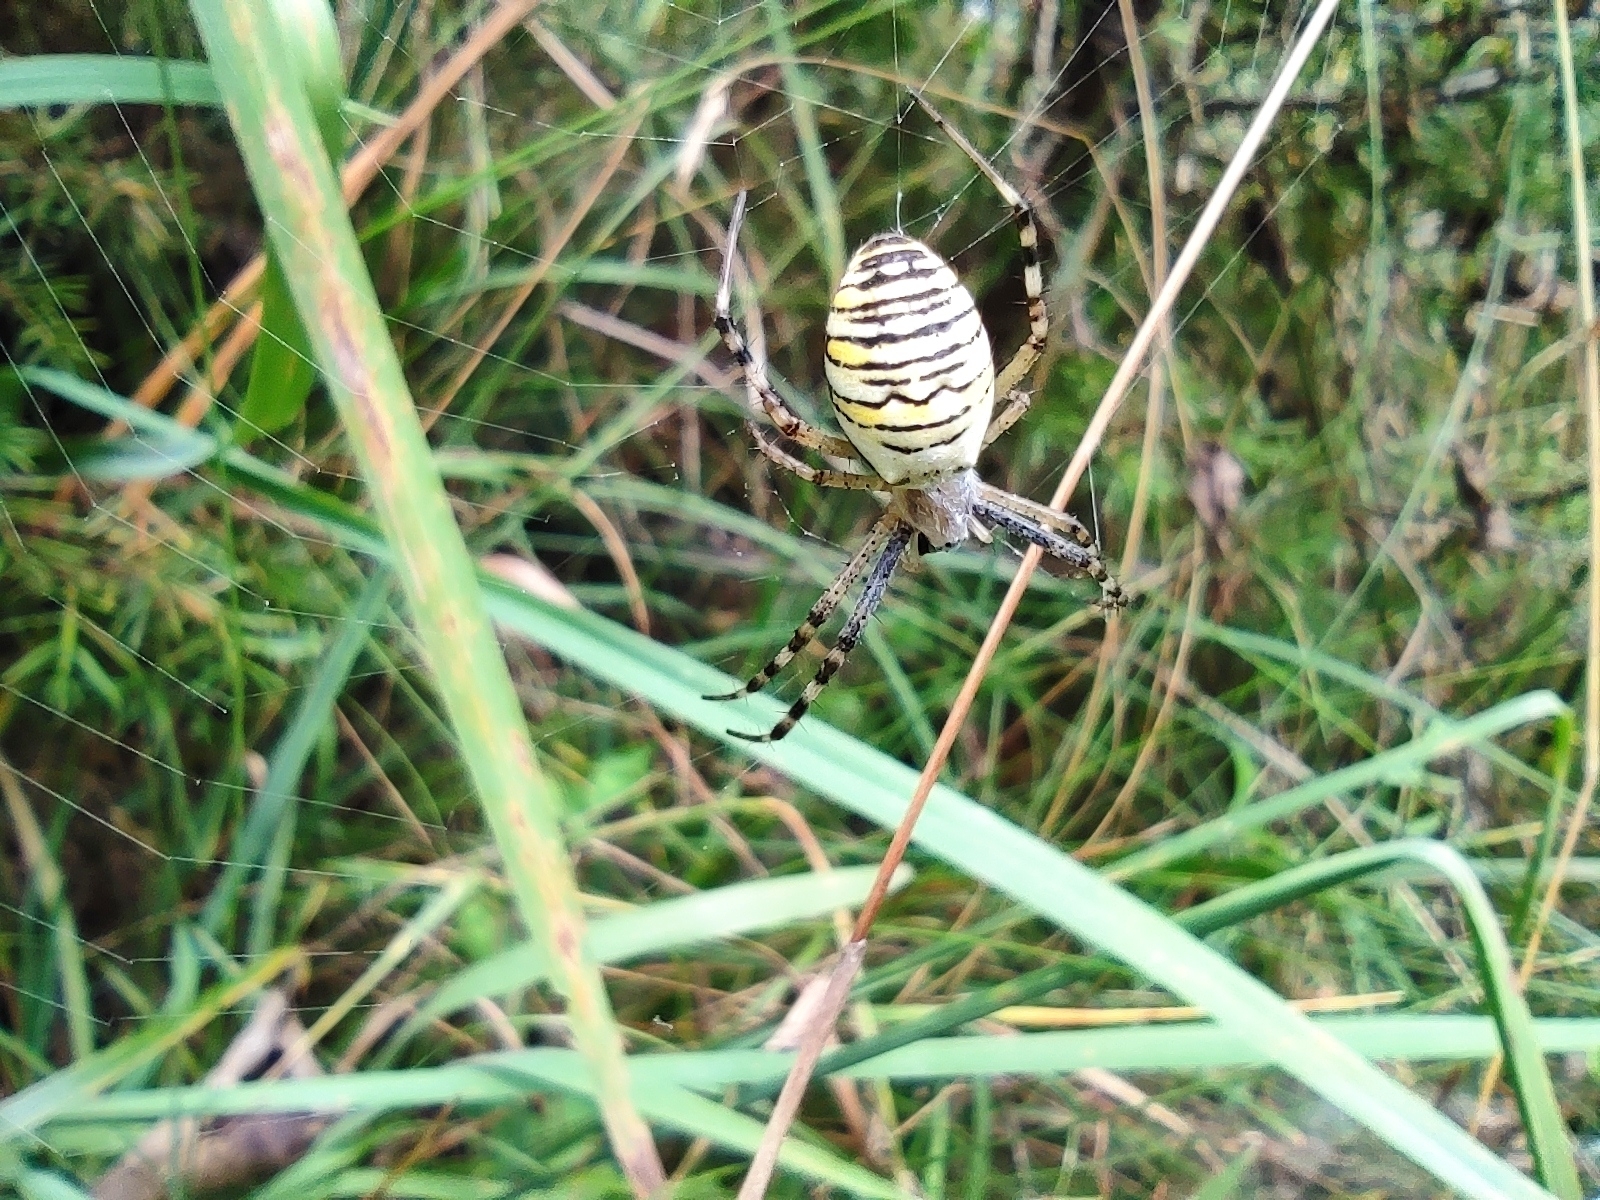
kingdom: Animalia
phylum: Arthropoda
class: Arachnida
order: Araneae
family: Araneidae
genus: Argiope
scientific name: Argiope bruennichi
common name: Wasp spider
